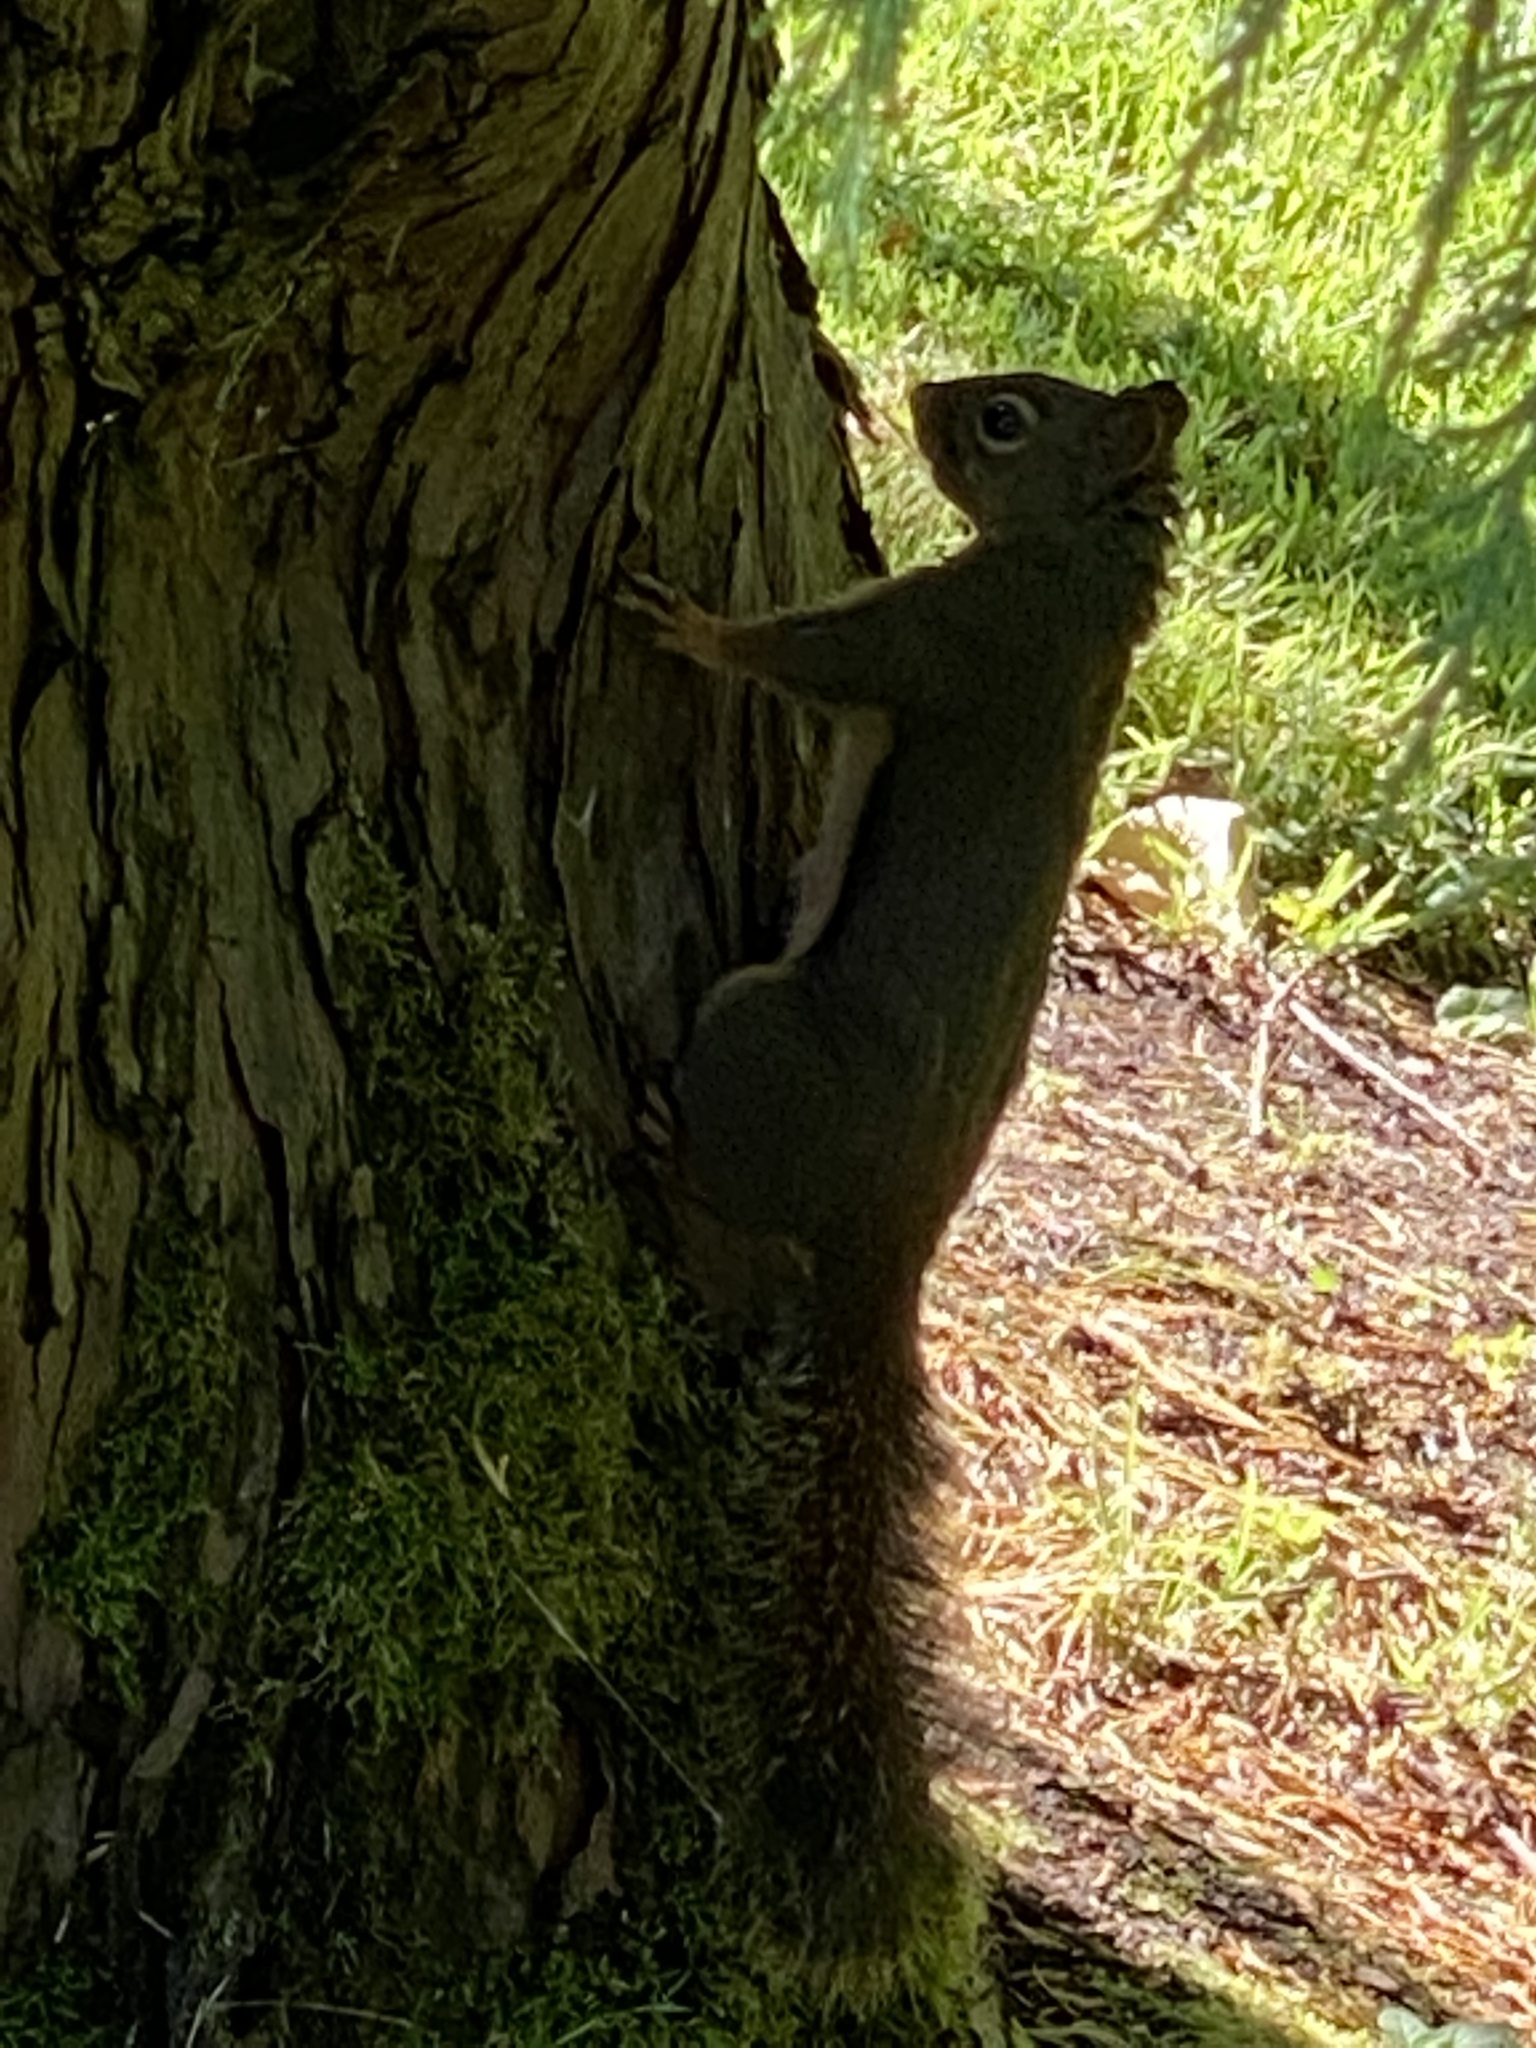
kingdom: Animalia
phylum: Chordata
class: Mammalia
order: Rodentia
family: Sciuridae
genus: Tamiasciurus
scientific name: Tamiasciurus douglasii
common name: Douglas's squirrel
